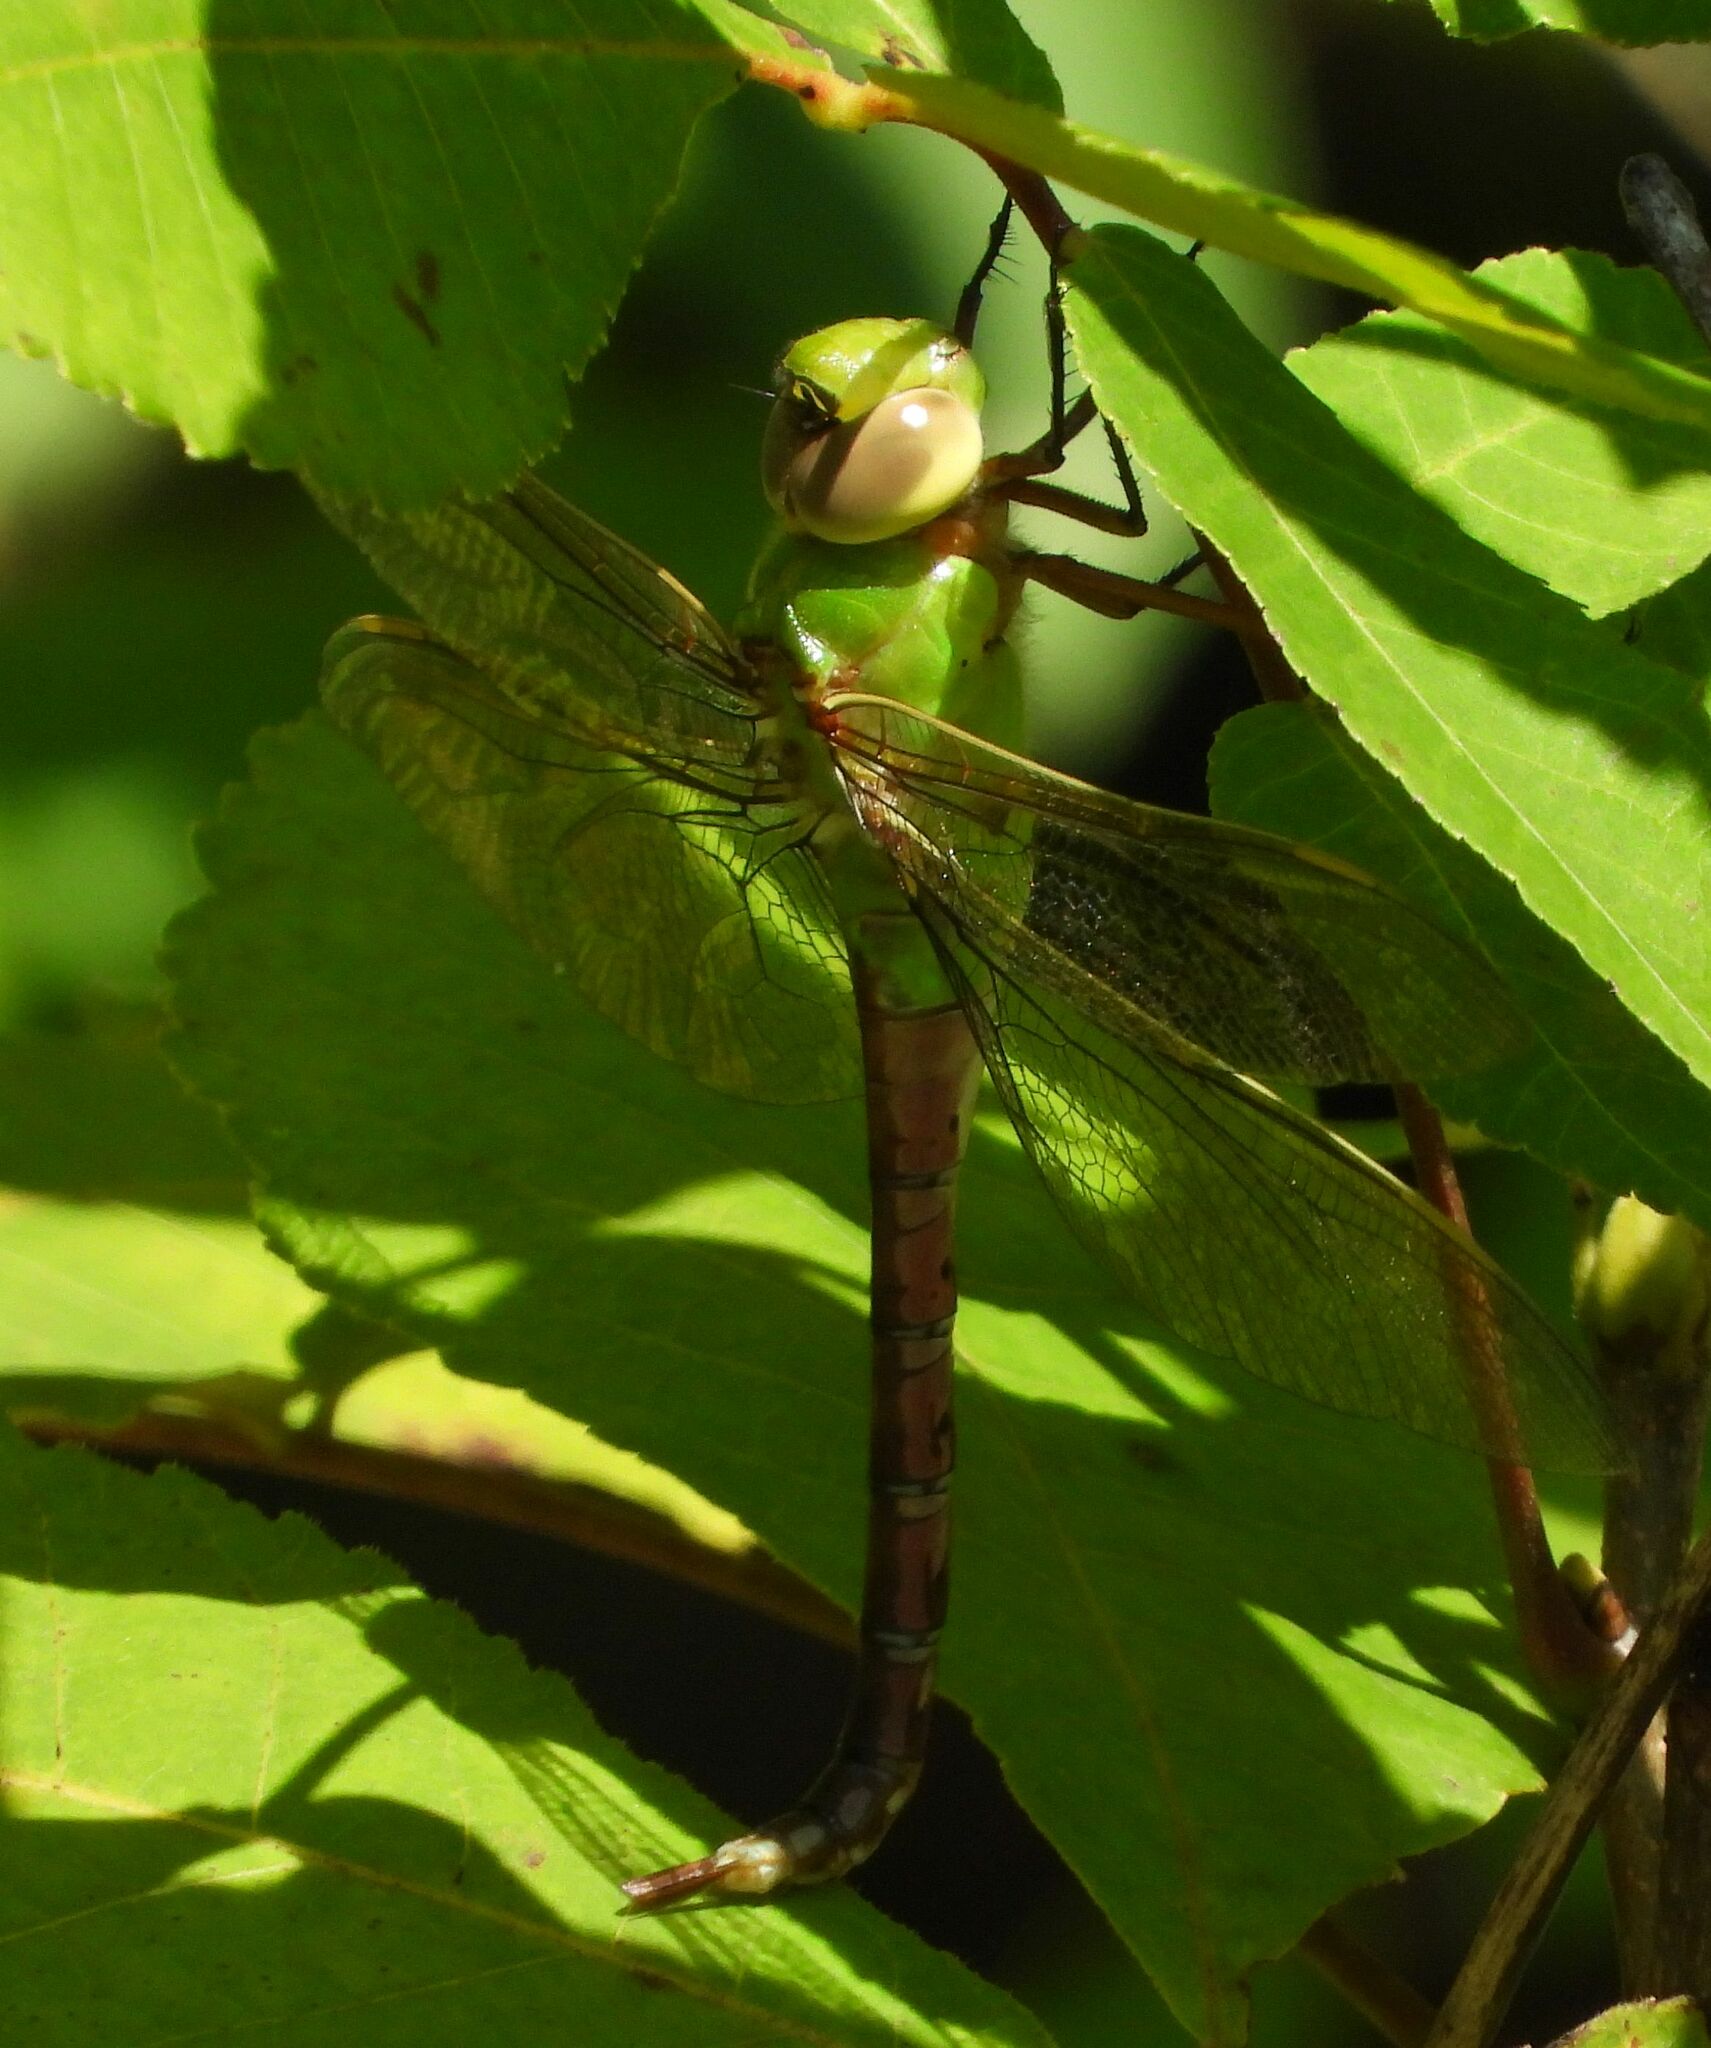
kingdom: Animalia
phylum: Arthropoda
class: Insecta
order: Odonata
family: Aeshnidae
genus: Anax
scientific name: Anax junius
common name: Common green darner
